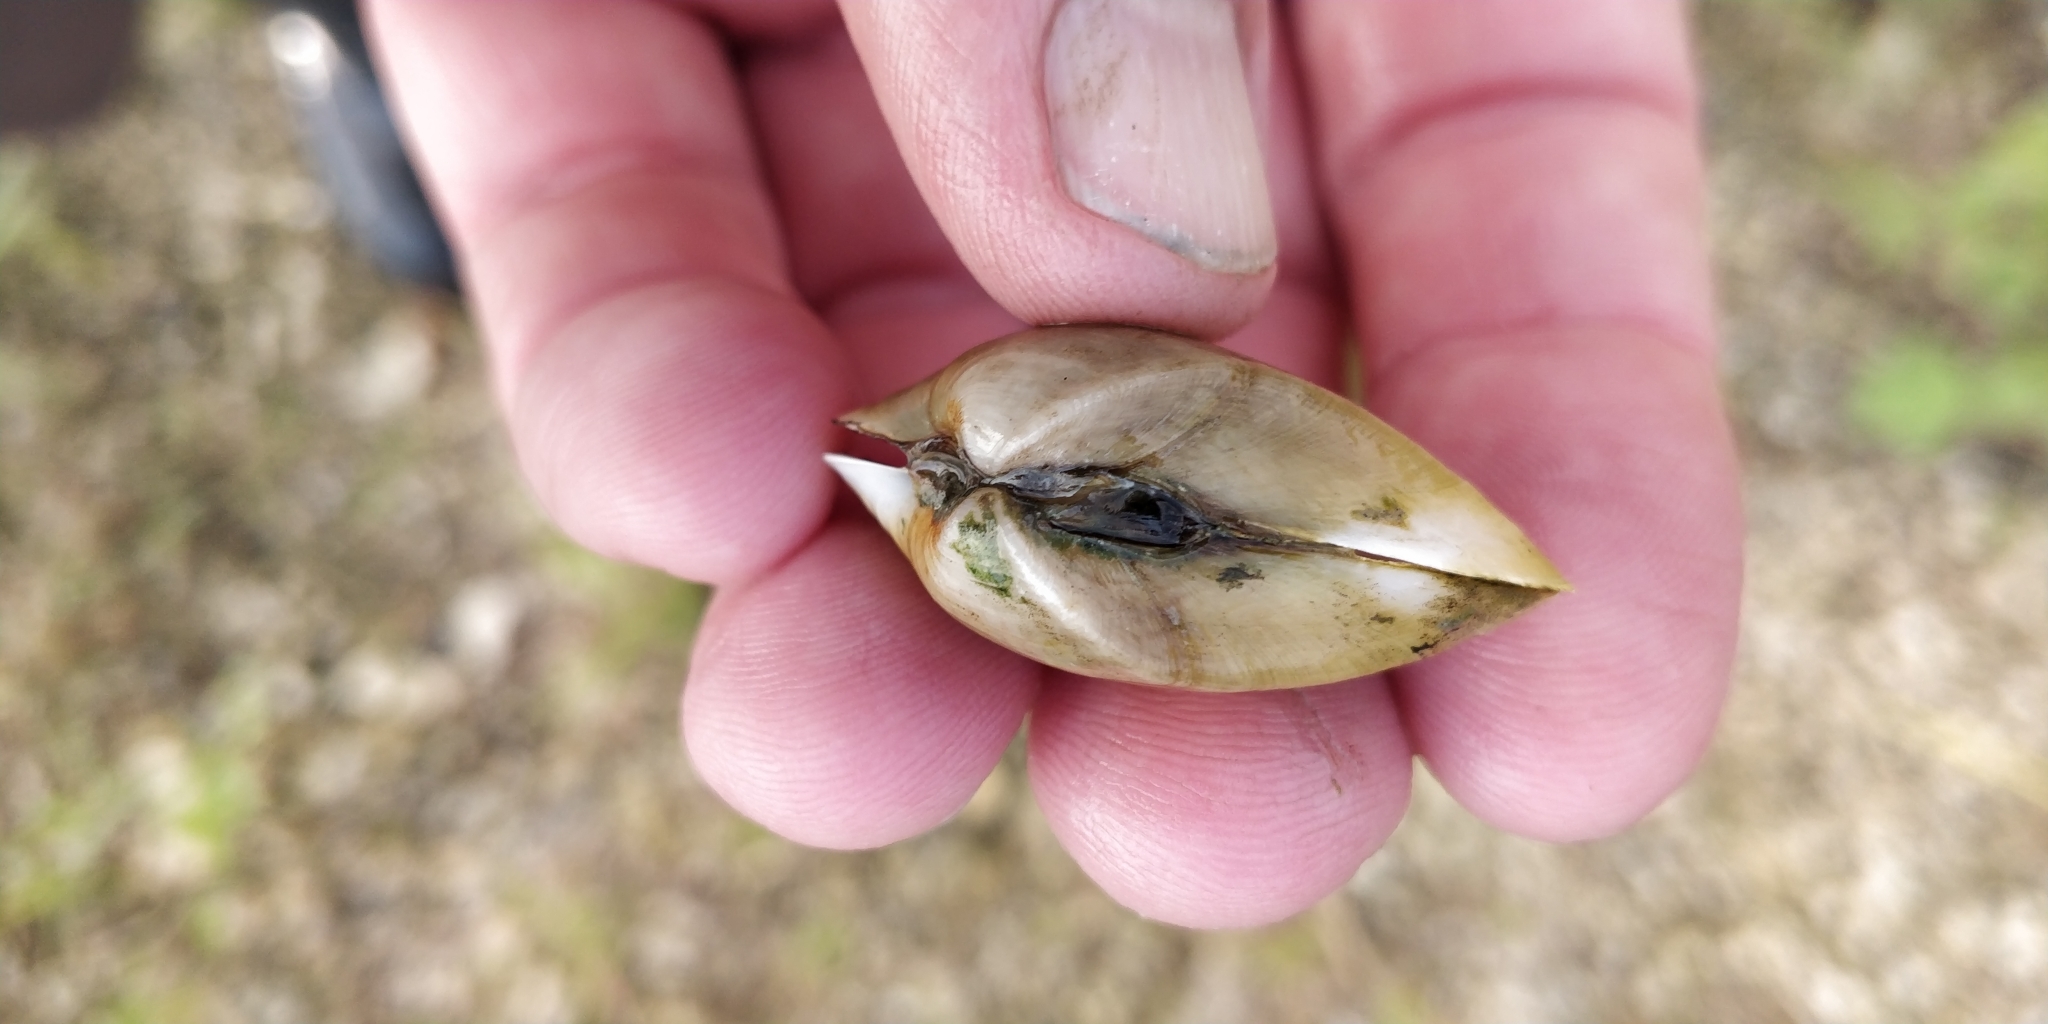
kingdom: Animalia
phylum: Mollusca
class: Bivalvia
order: Unionida
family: Unionidae
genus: Truncilla
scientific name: Truncilla truncata
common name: Deertoe
